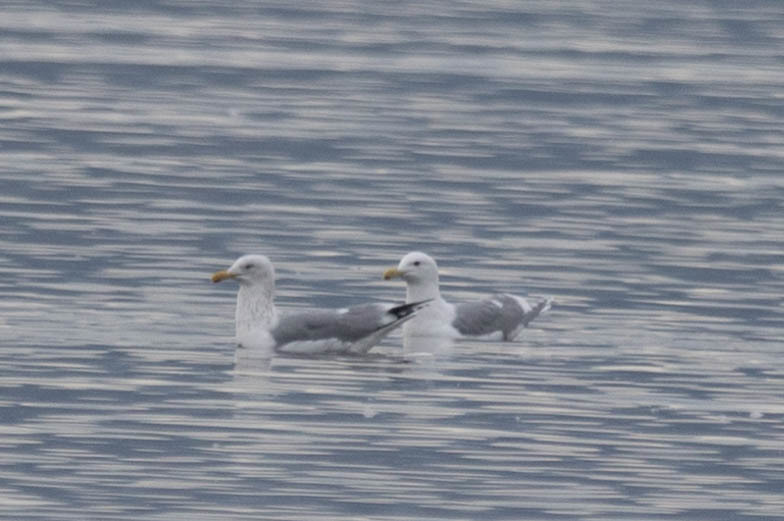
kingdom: Animalia
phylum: Chordata
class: Aves
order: Charadriiformes
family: Laridae
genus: Larus
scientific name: Larus glaucescens
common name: Glaucous-winged gull
